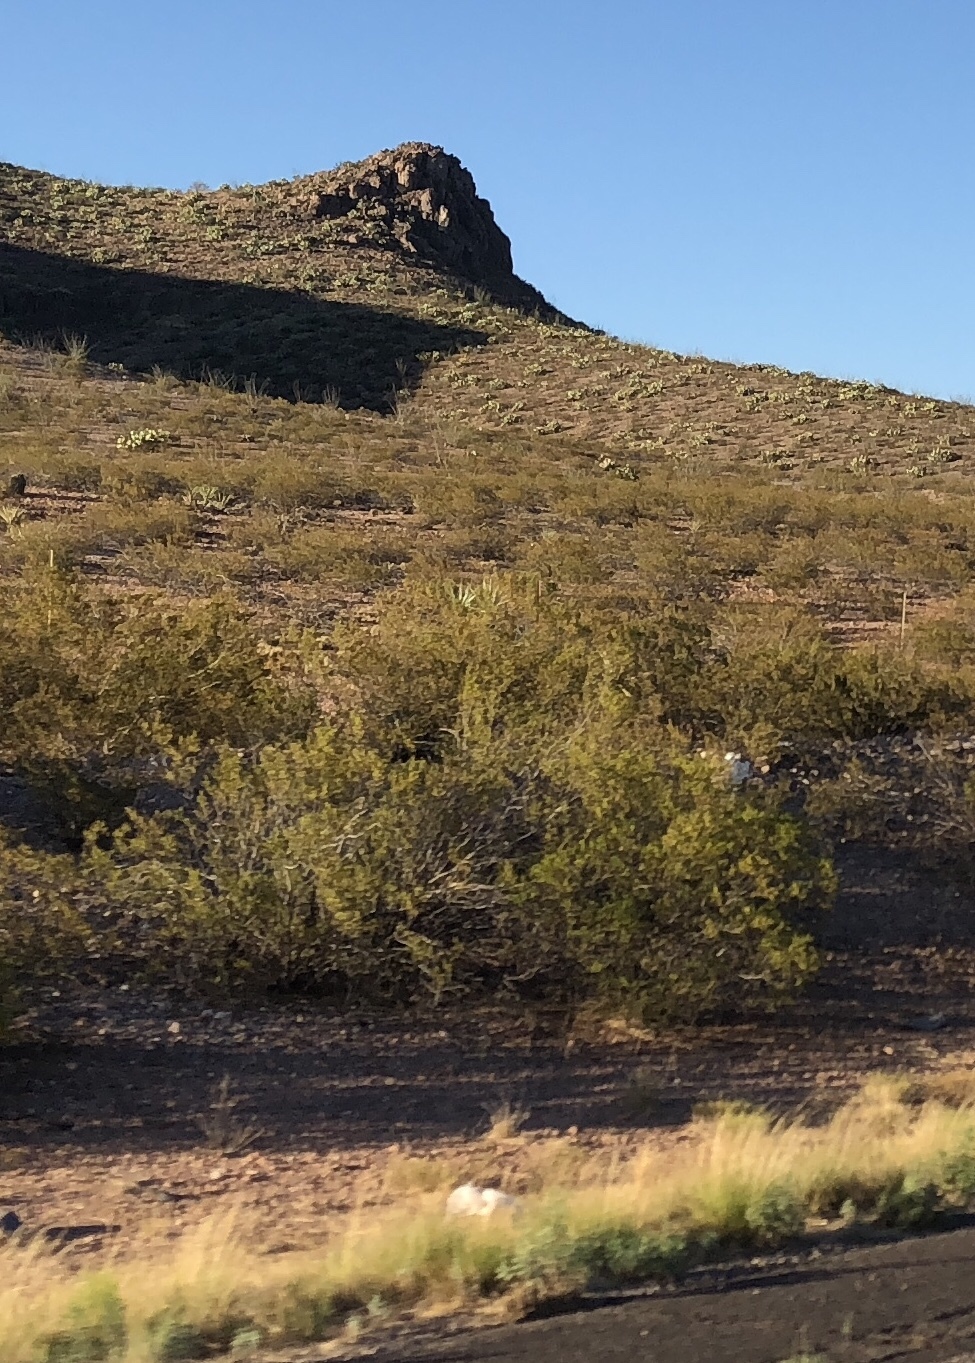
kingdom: Plantae
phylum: Tracheophyta
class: Magnoliopsida
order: Zygophyllales
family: Zygophyllaceae
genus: Larrea
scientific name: Larrea tridentata
